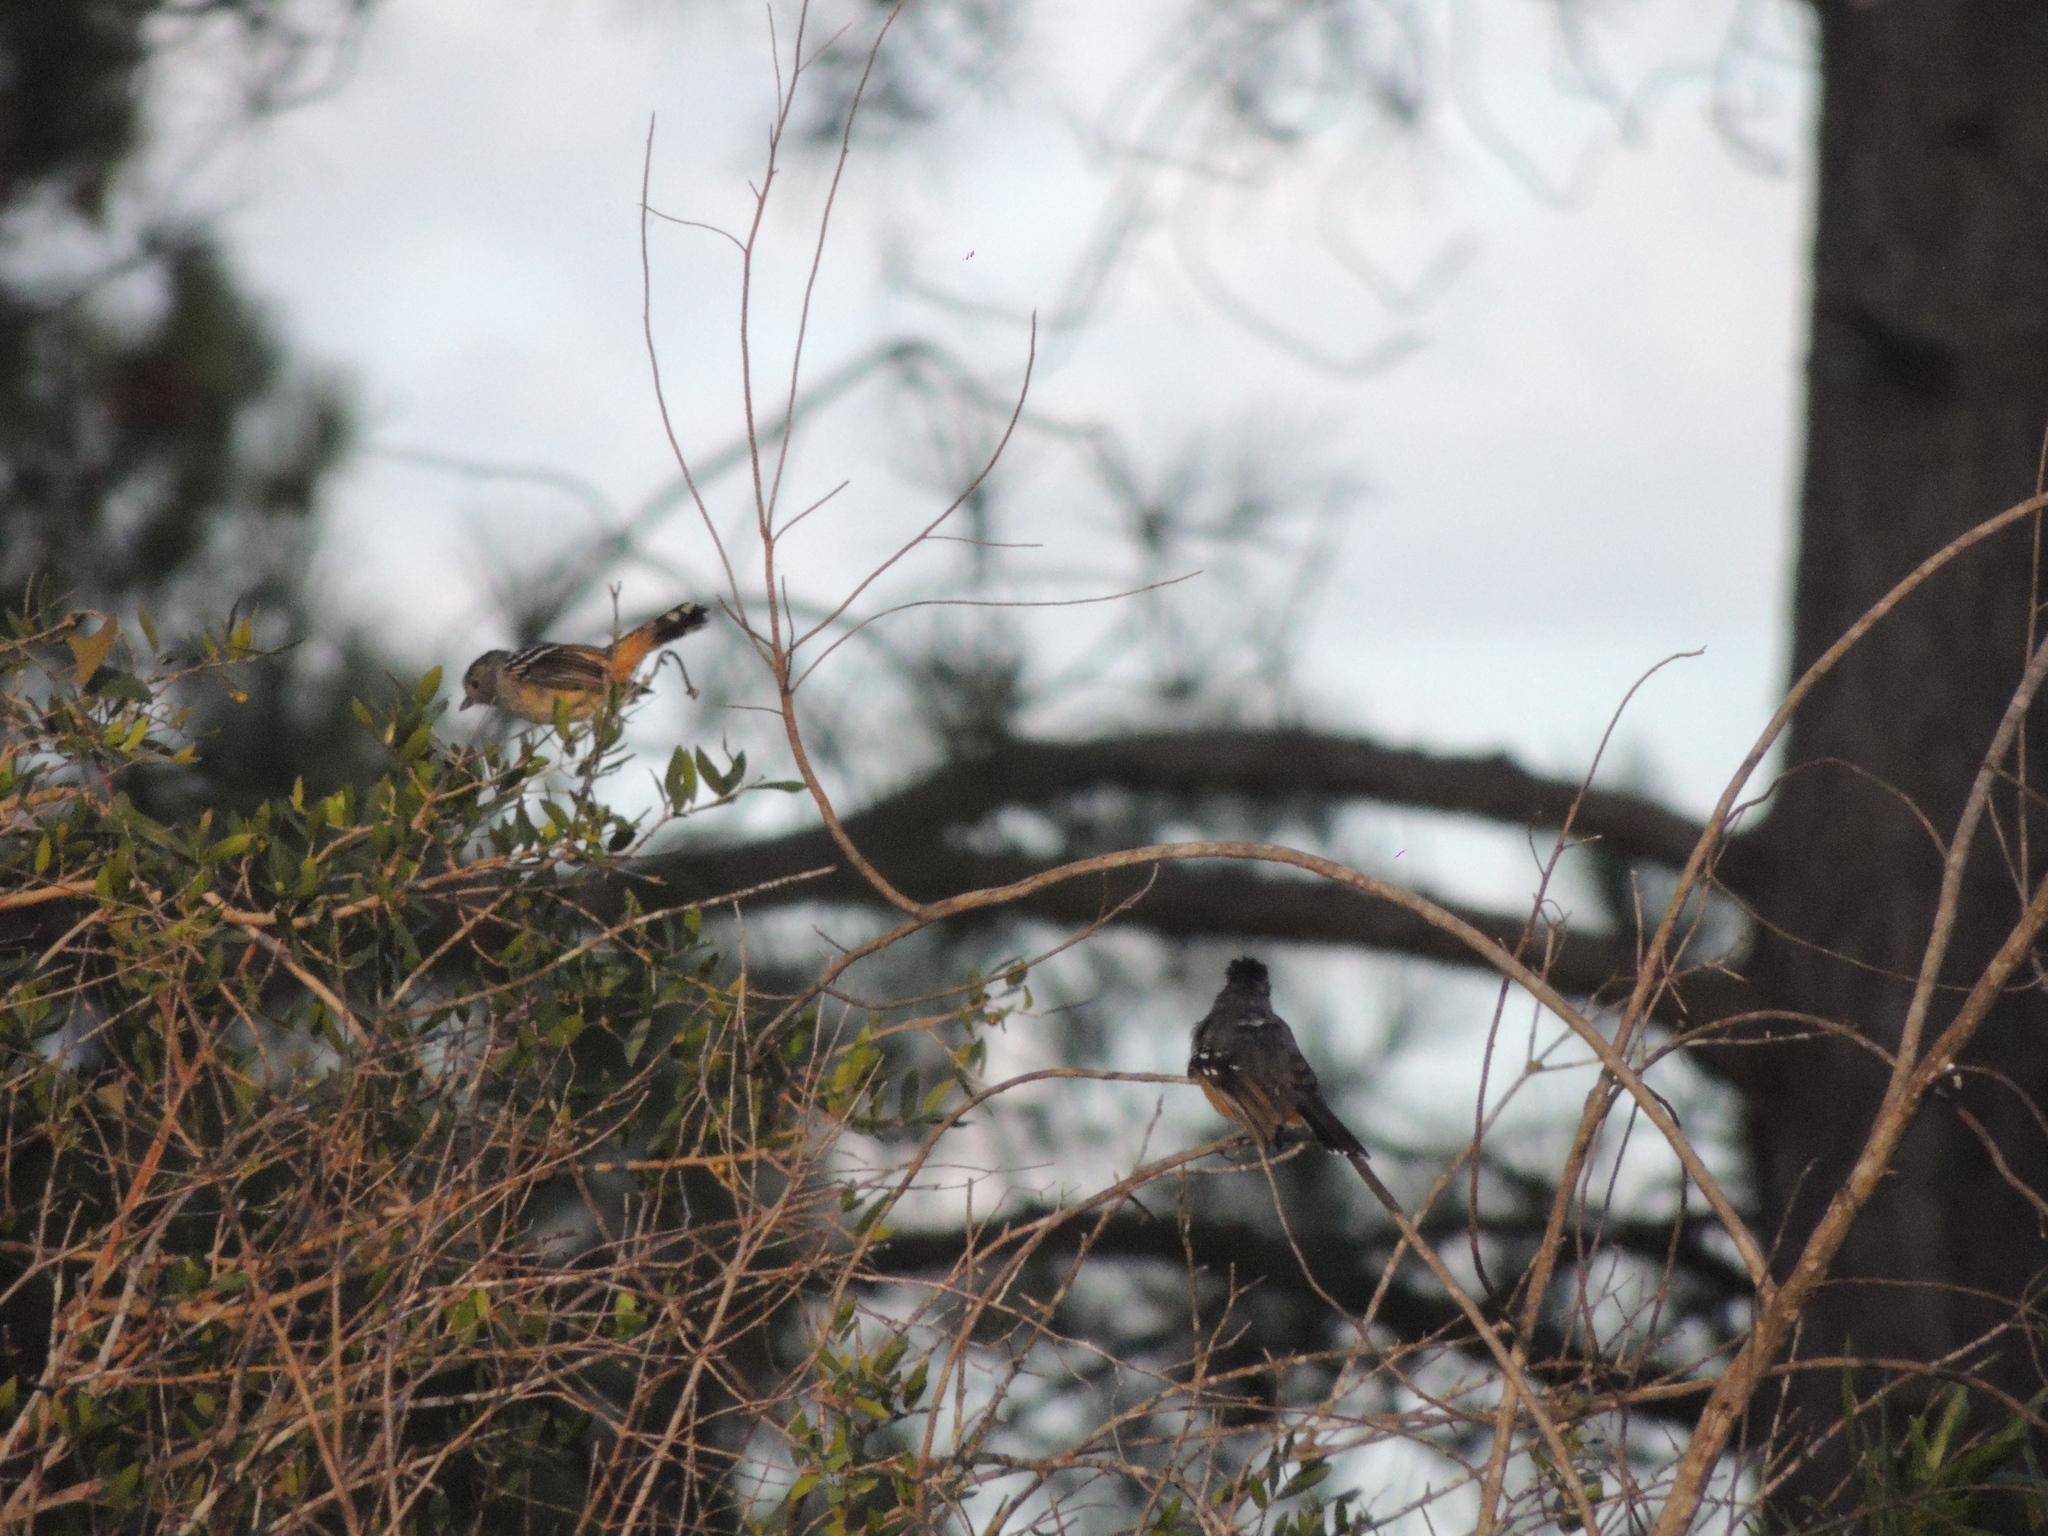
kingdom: Animalia
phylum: Chordata
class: Aves
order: Passeriformes
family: Thamnophilidae
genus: Thamnophilus
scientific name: Thamnophilus caerulescens
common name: Variable antshrike
